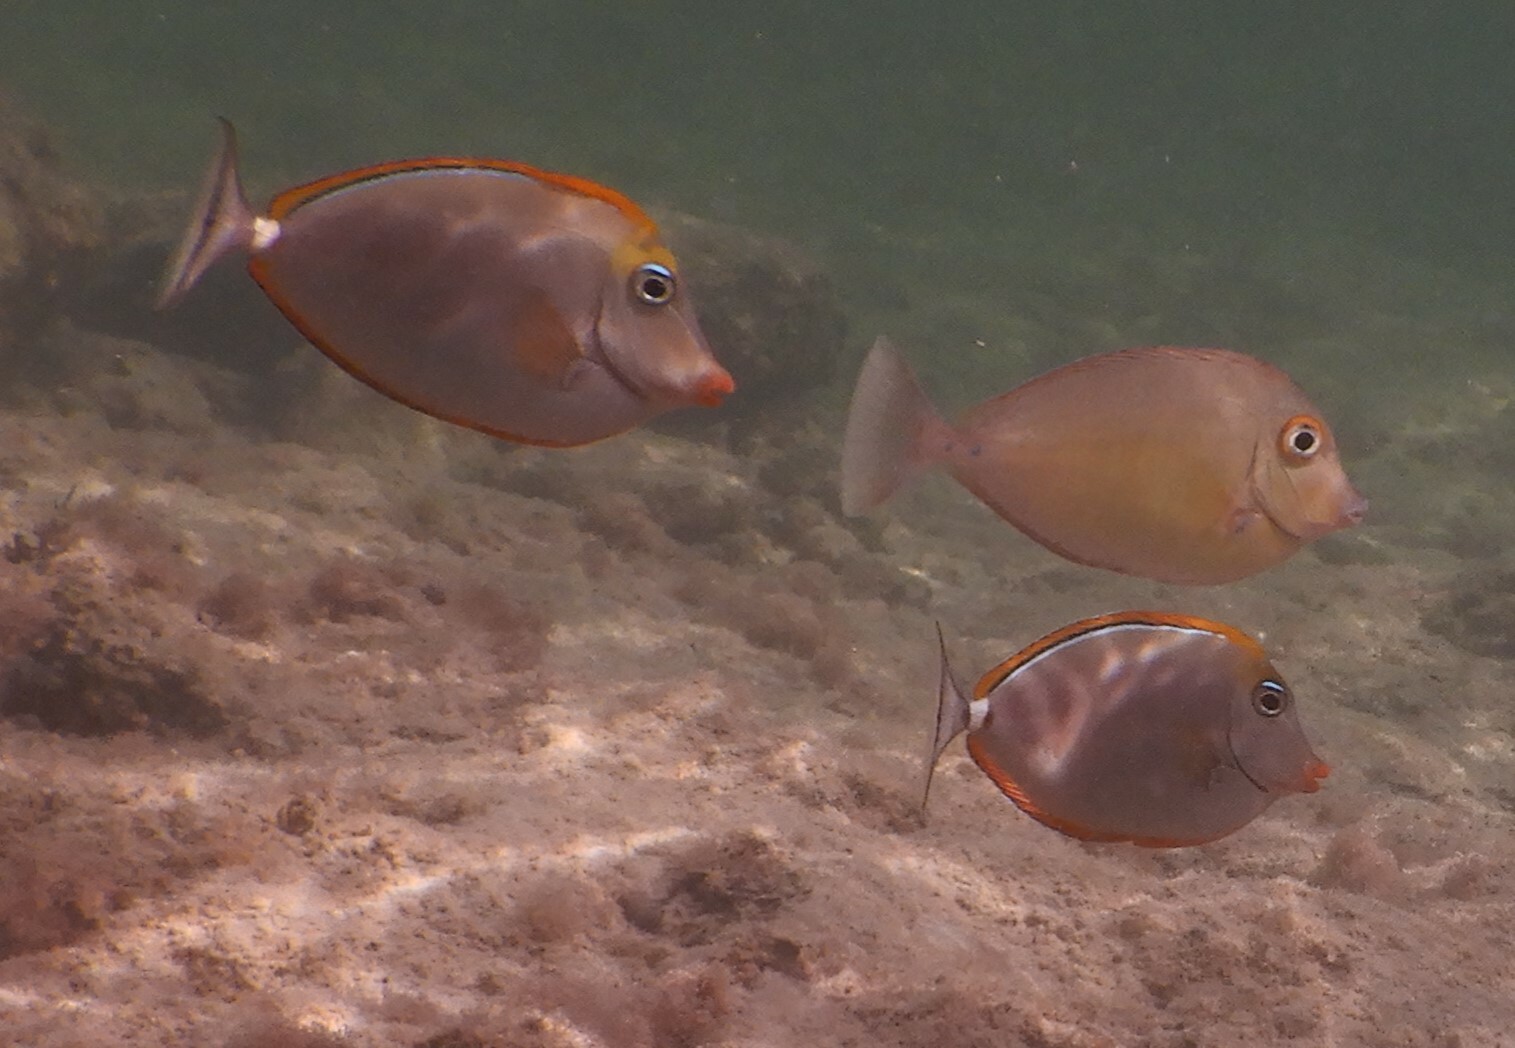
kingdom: Animalia
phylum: Chordata
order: Perciformes
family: Acanthuridae
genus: Naso
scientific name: Naso elegans
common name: Orangespine unicornfish
